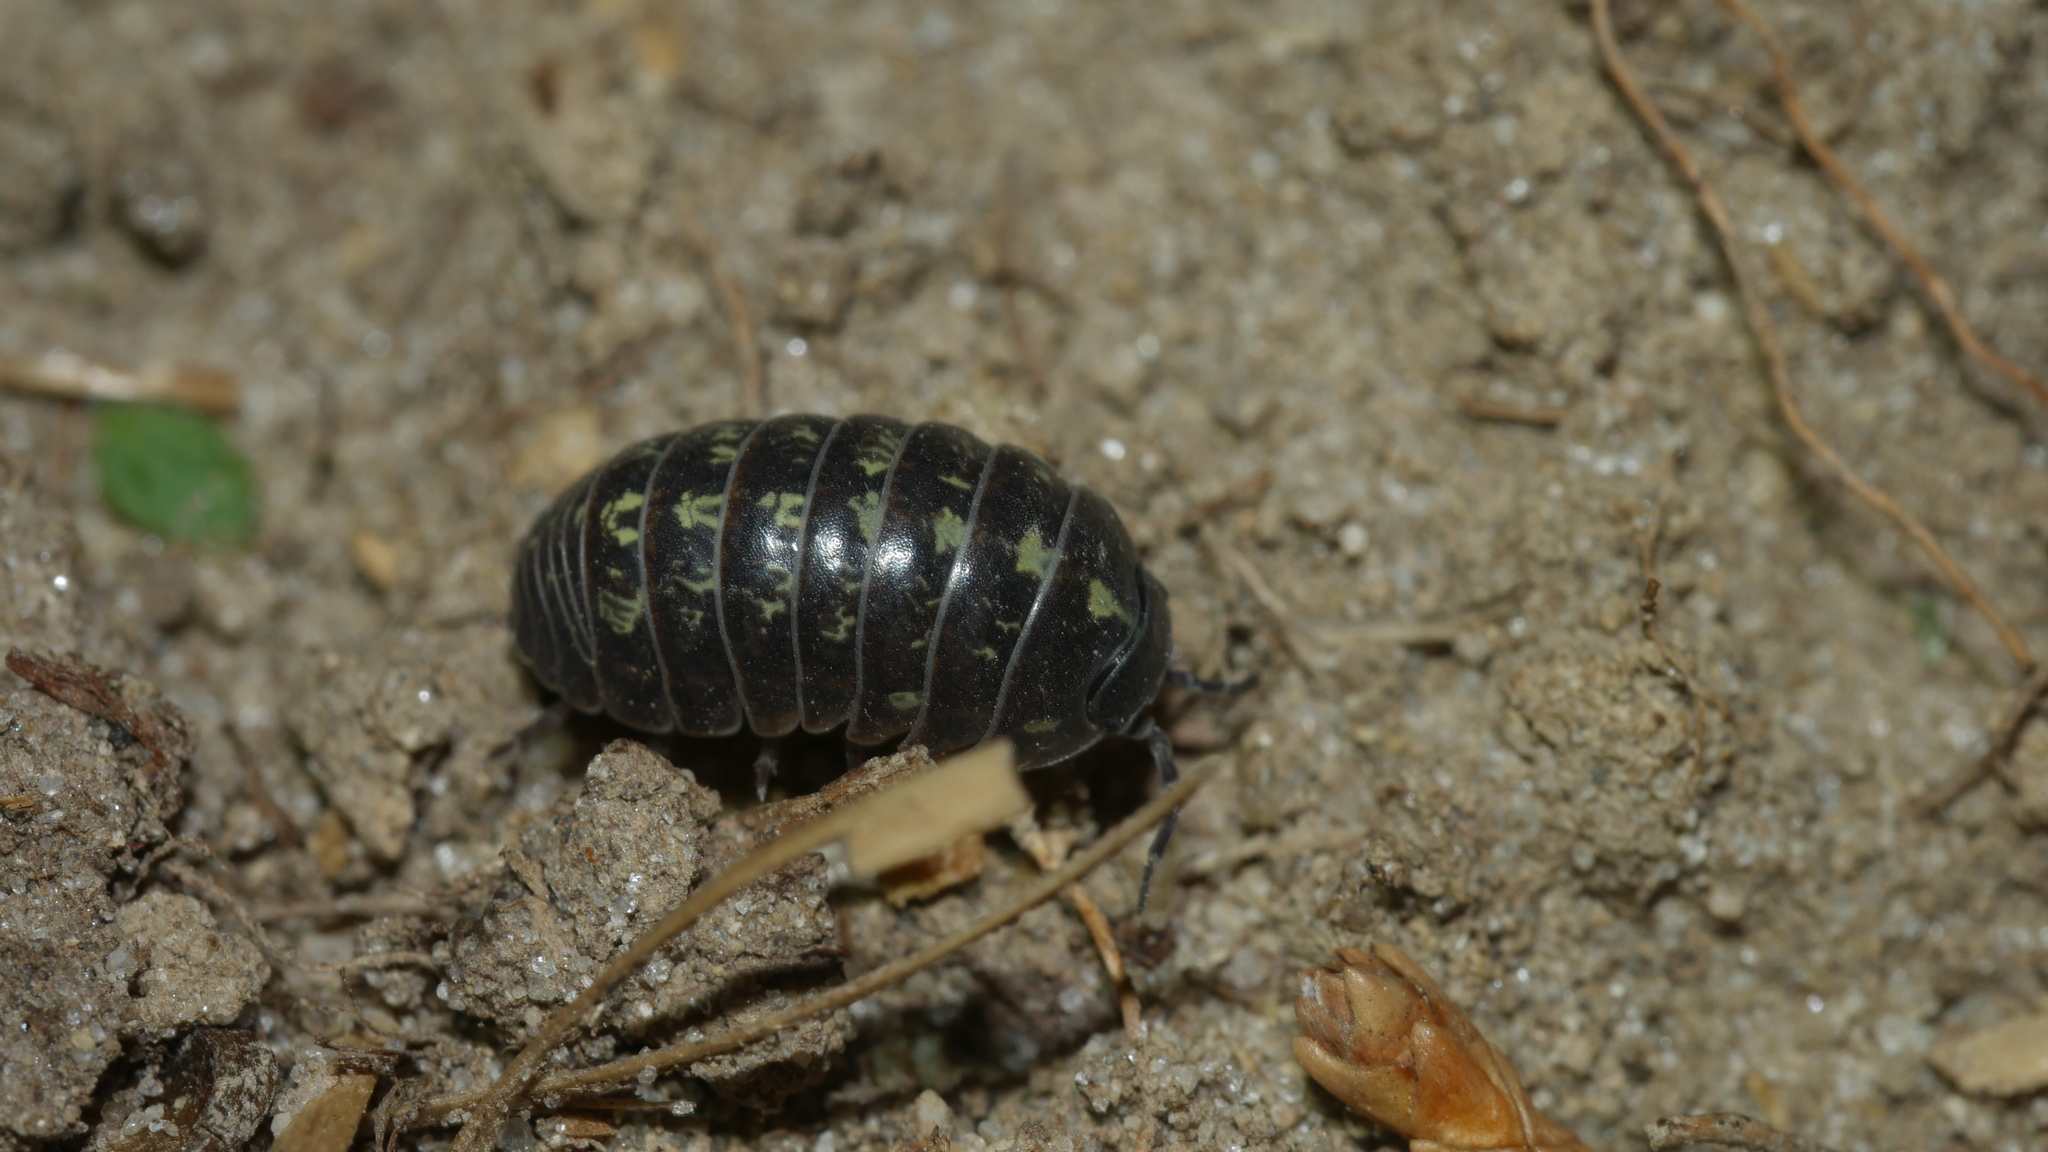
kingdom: Animalia
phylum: Arthropoda
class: Malacostraca
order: Isopoda
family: Armadillidiidae
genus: Armadillidium
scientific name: Armadillidium vulgare
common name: Common pill woodlouse
